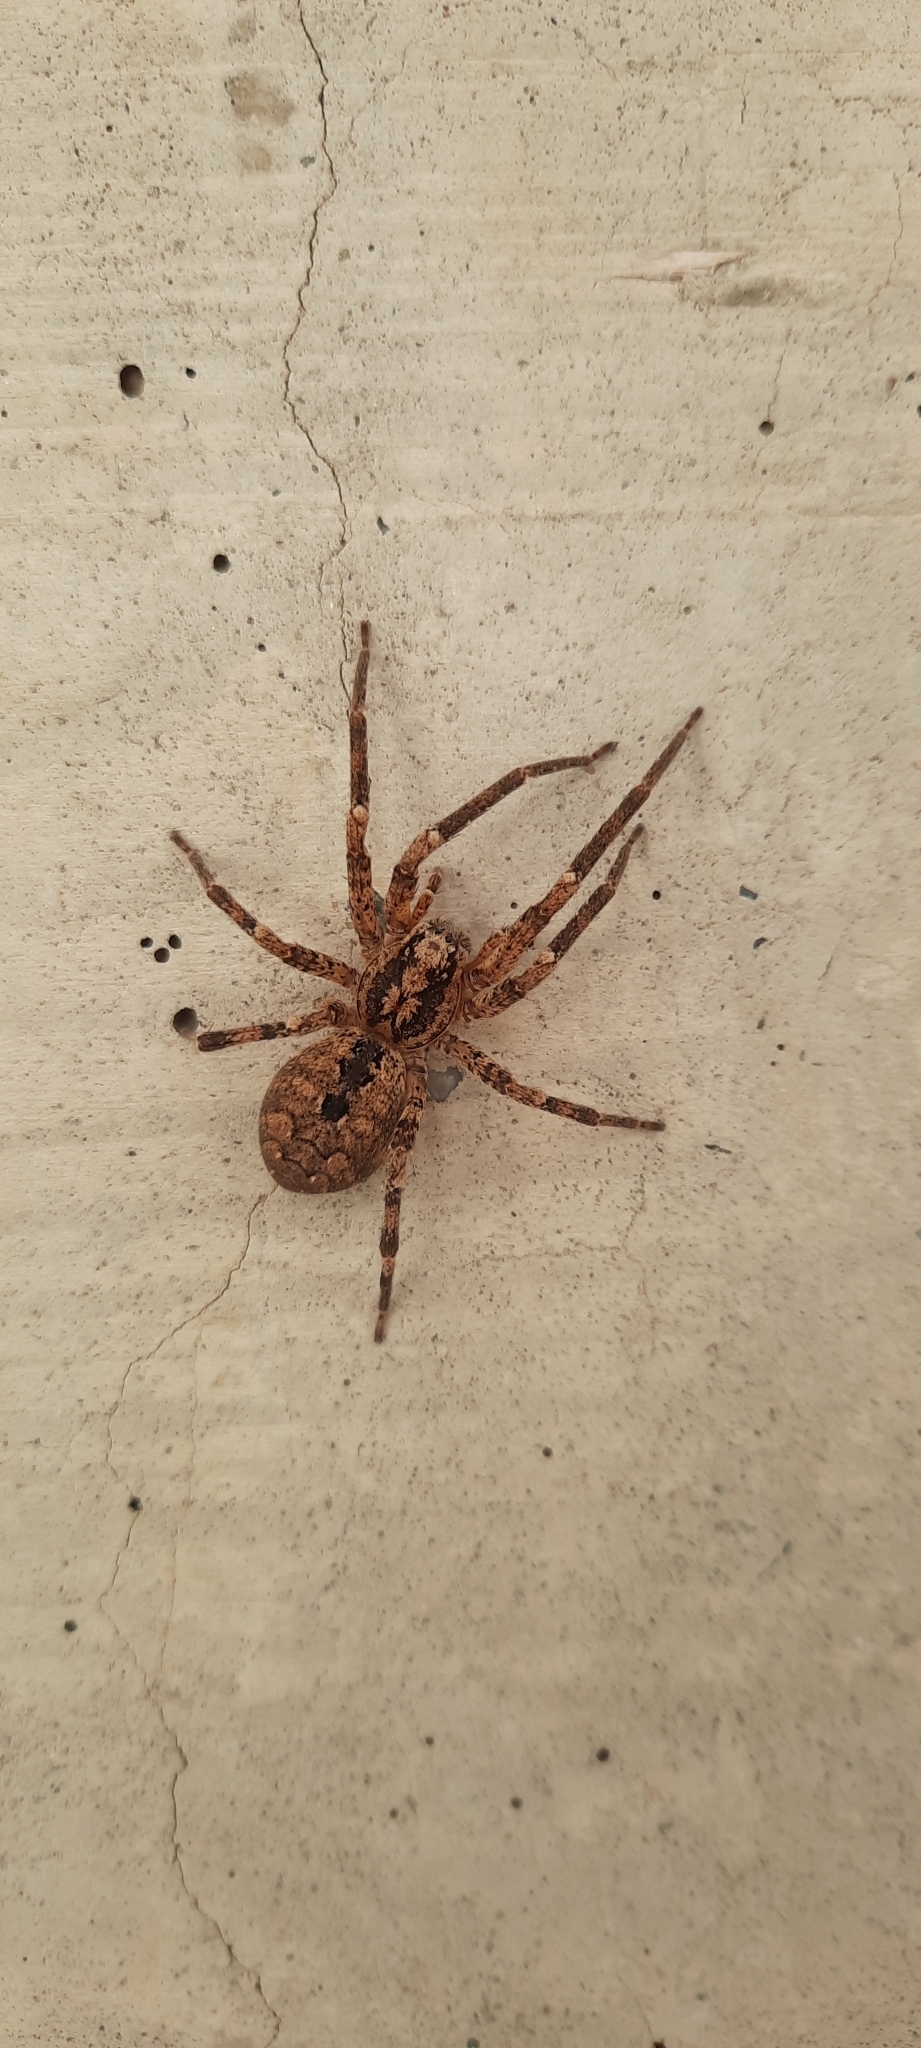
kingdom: Animalia
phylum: Arthropoda
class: Arachnida
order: Araneae
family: Zoropsidae
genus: Zoropsis
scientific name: Zoropsis spinimana
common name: Zoropsid spider
